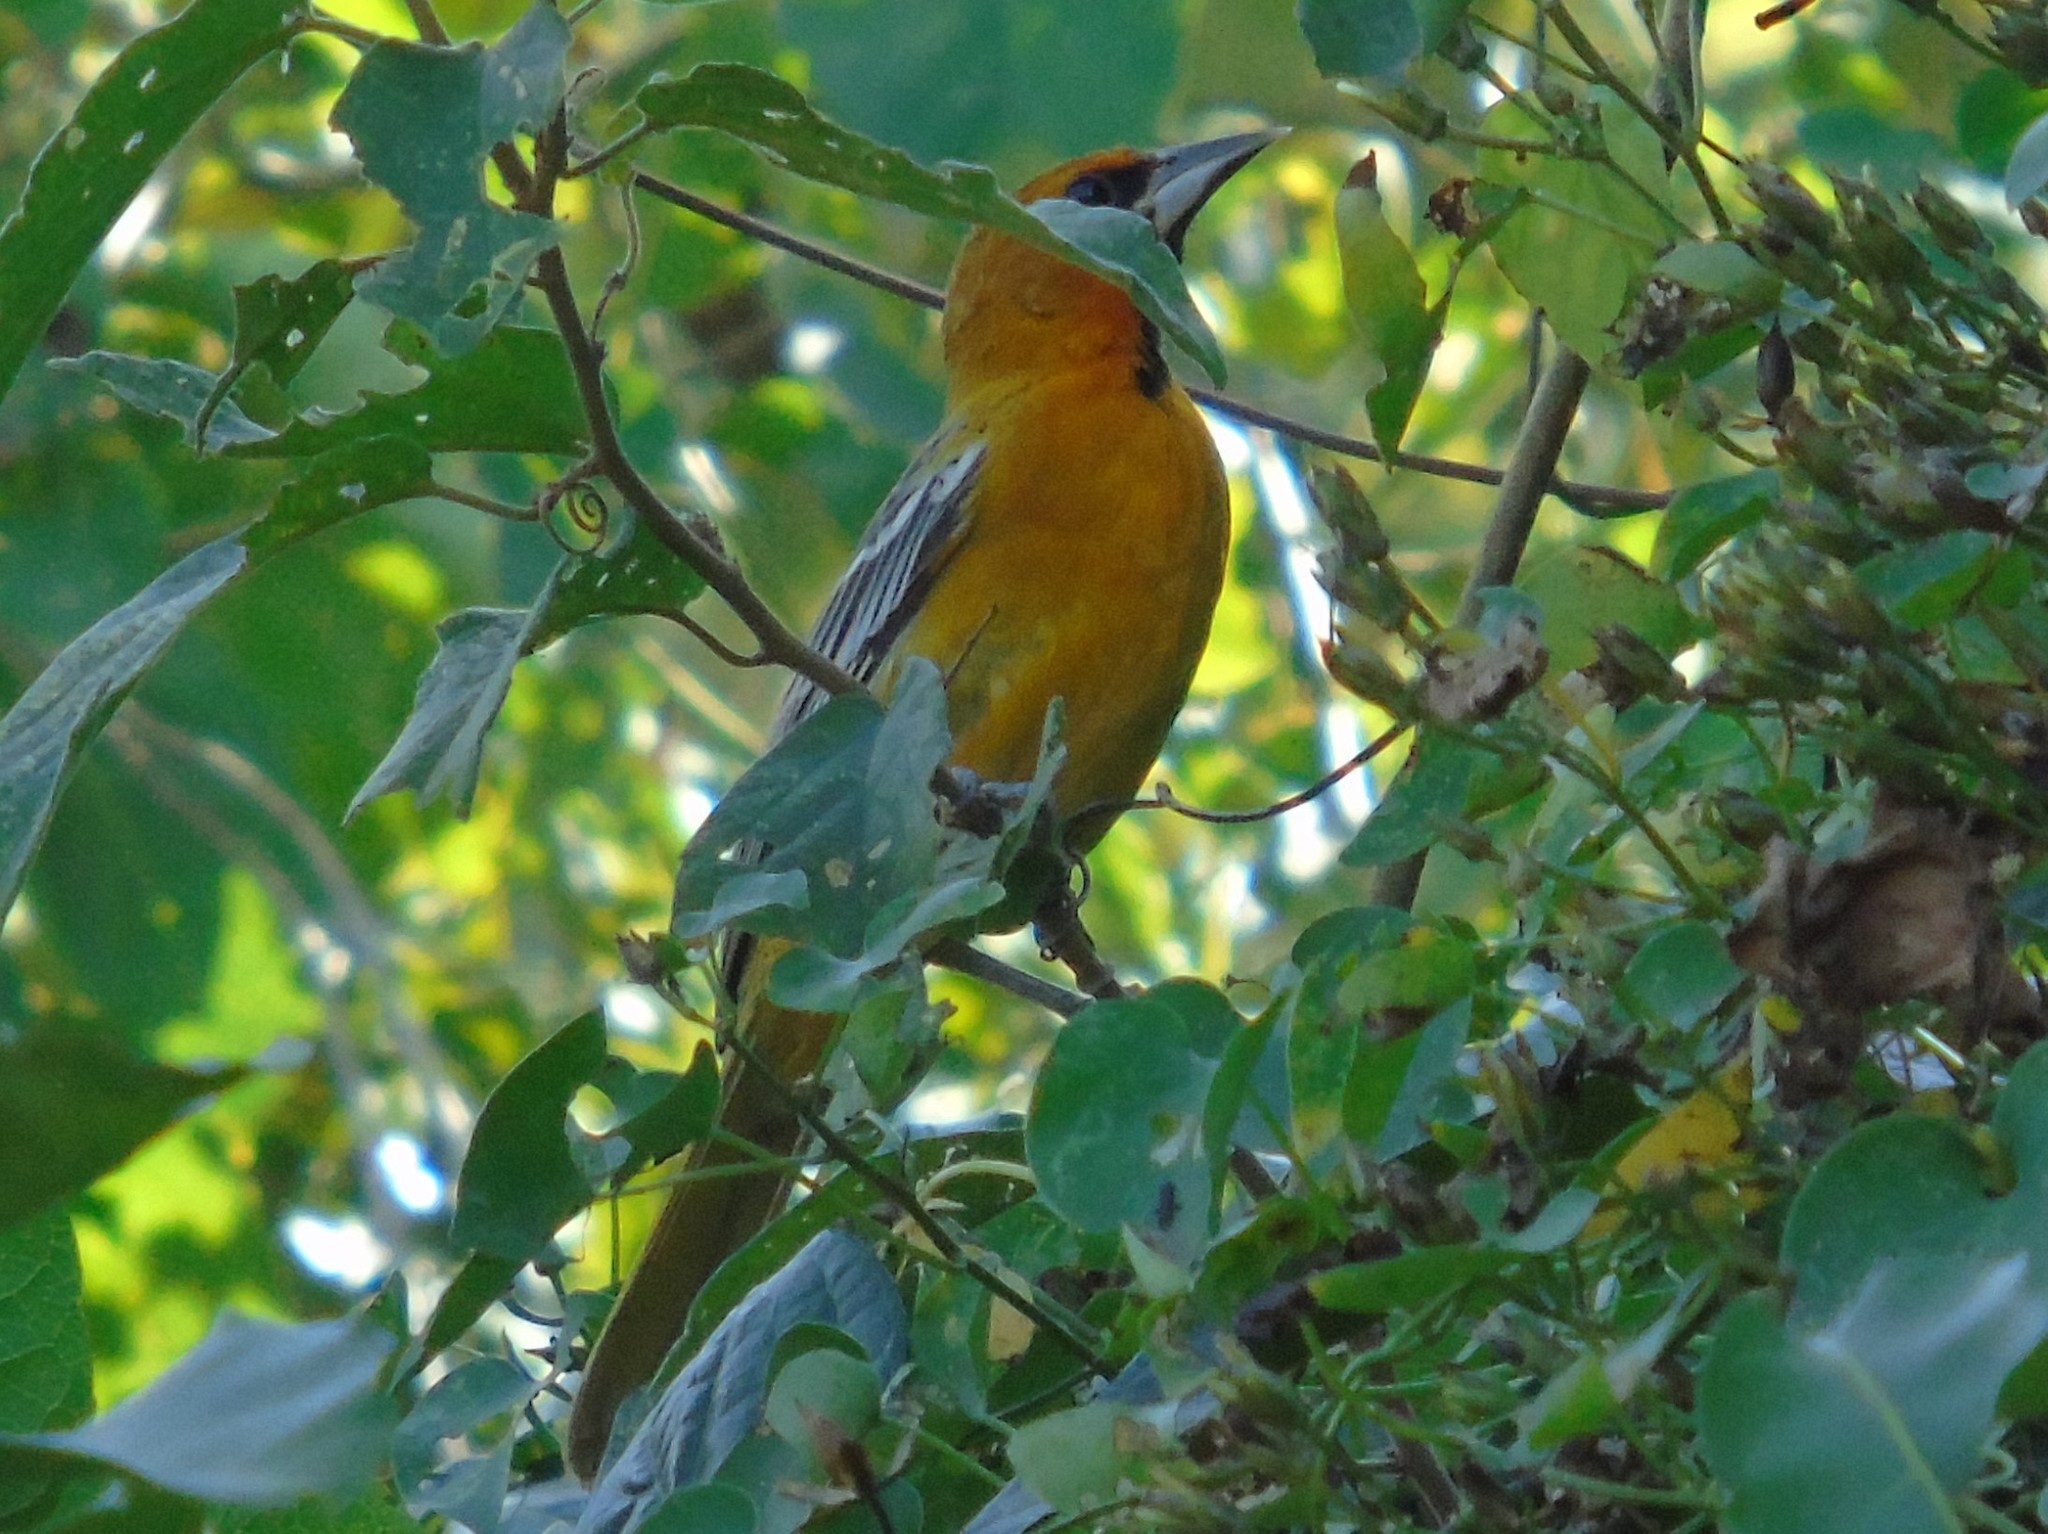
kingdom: Animalia
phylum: Chordata
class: Aves
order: Passeriformes
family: Icteridae
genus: Icterus
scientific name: Icterus pustulatus
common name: Streak-backed oriole
